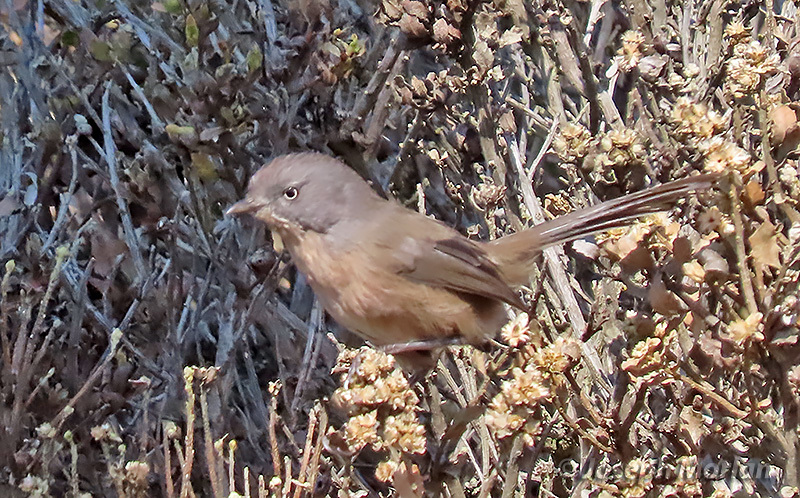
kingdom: Animalia
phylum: Chordata
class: Aves
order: Passeriformes
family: Sylviidae
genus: Chamaea
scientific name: Chamaea fasciata
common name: Wrentit
